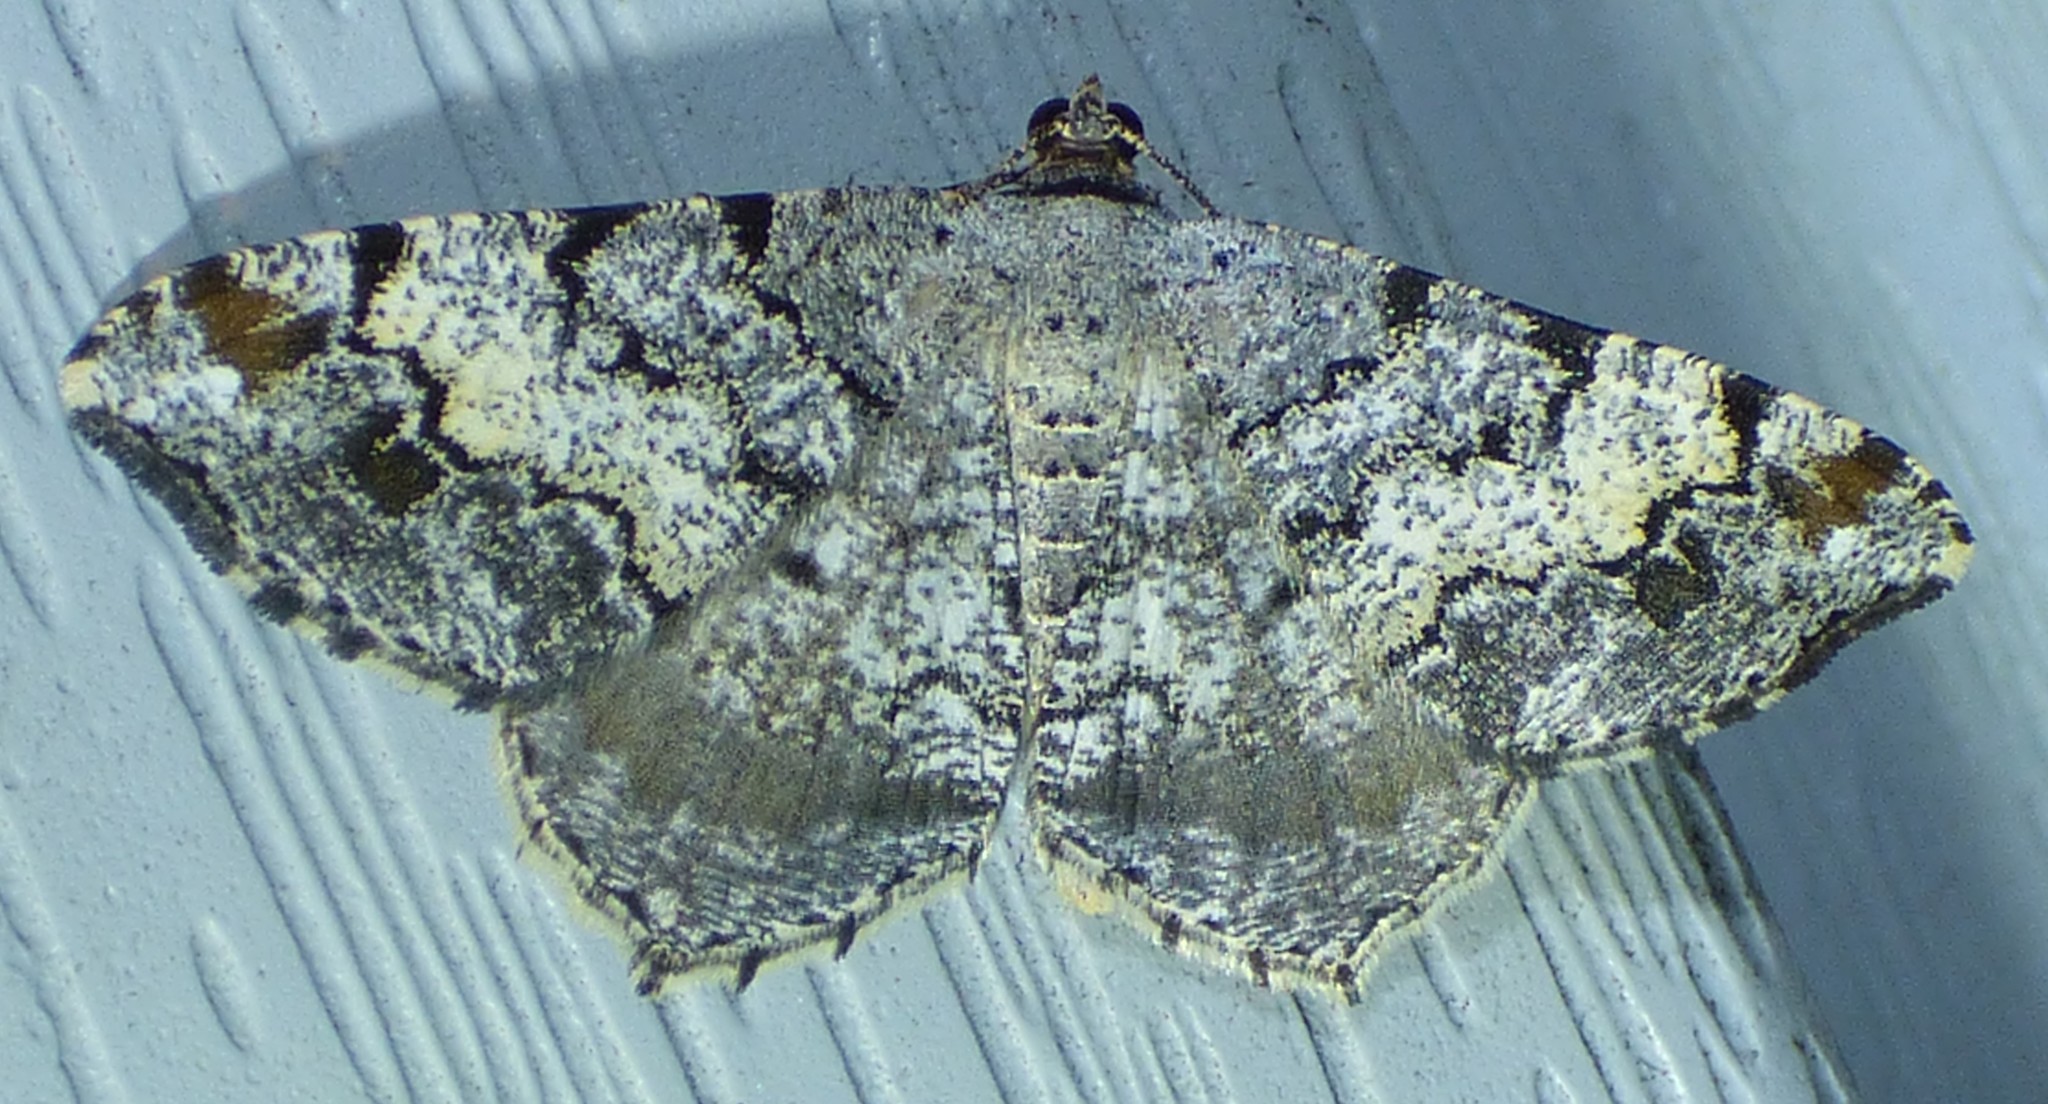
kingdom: Animalia
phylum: Arthropoda
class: Insecta
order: Lepidoptera
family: Geometridae
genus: Macaria
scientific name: Macaria granitata
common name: Granite moth
